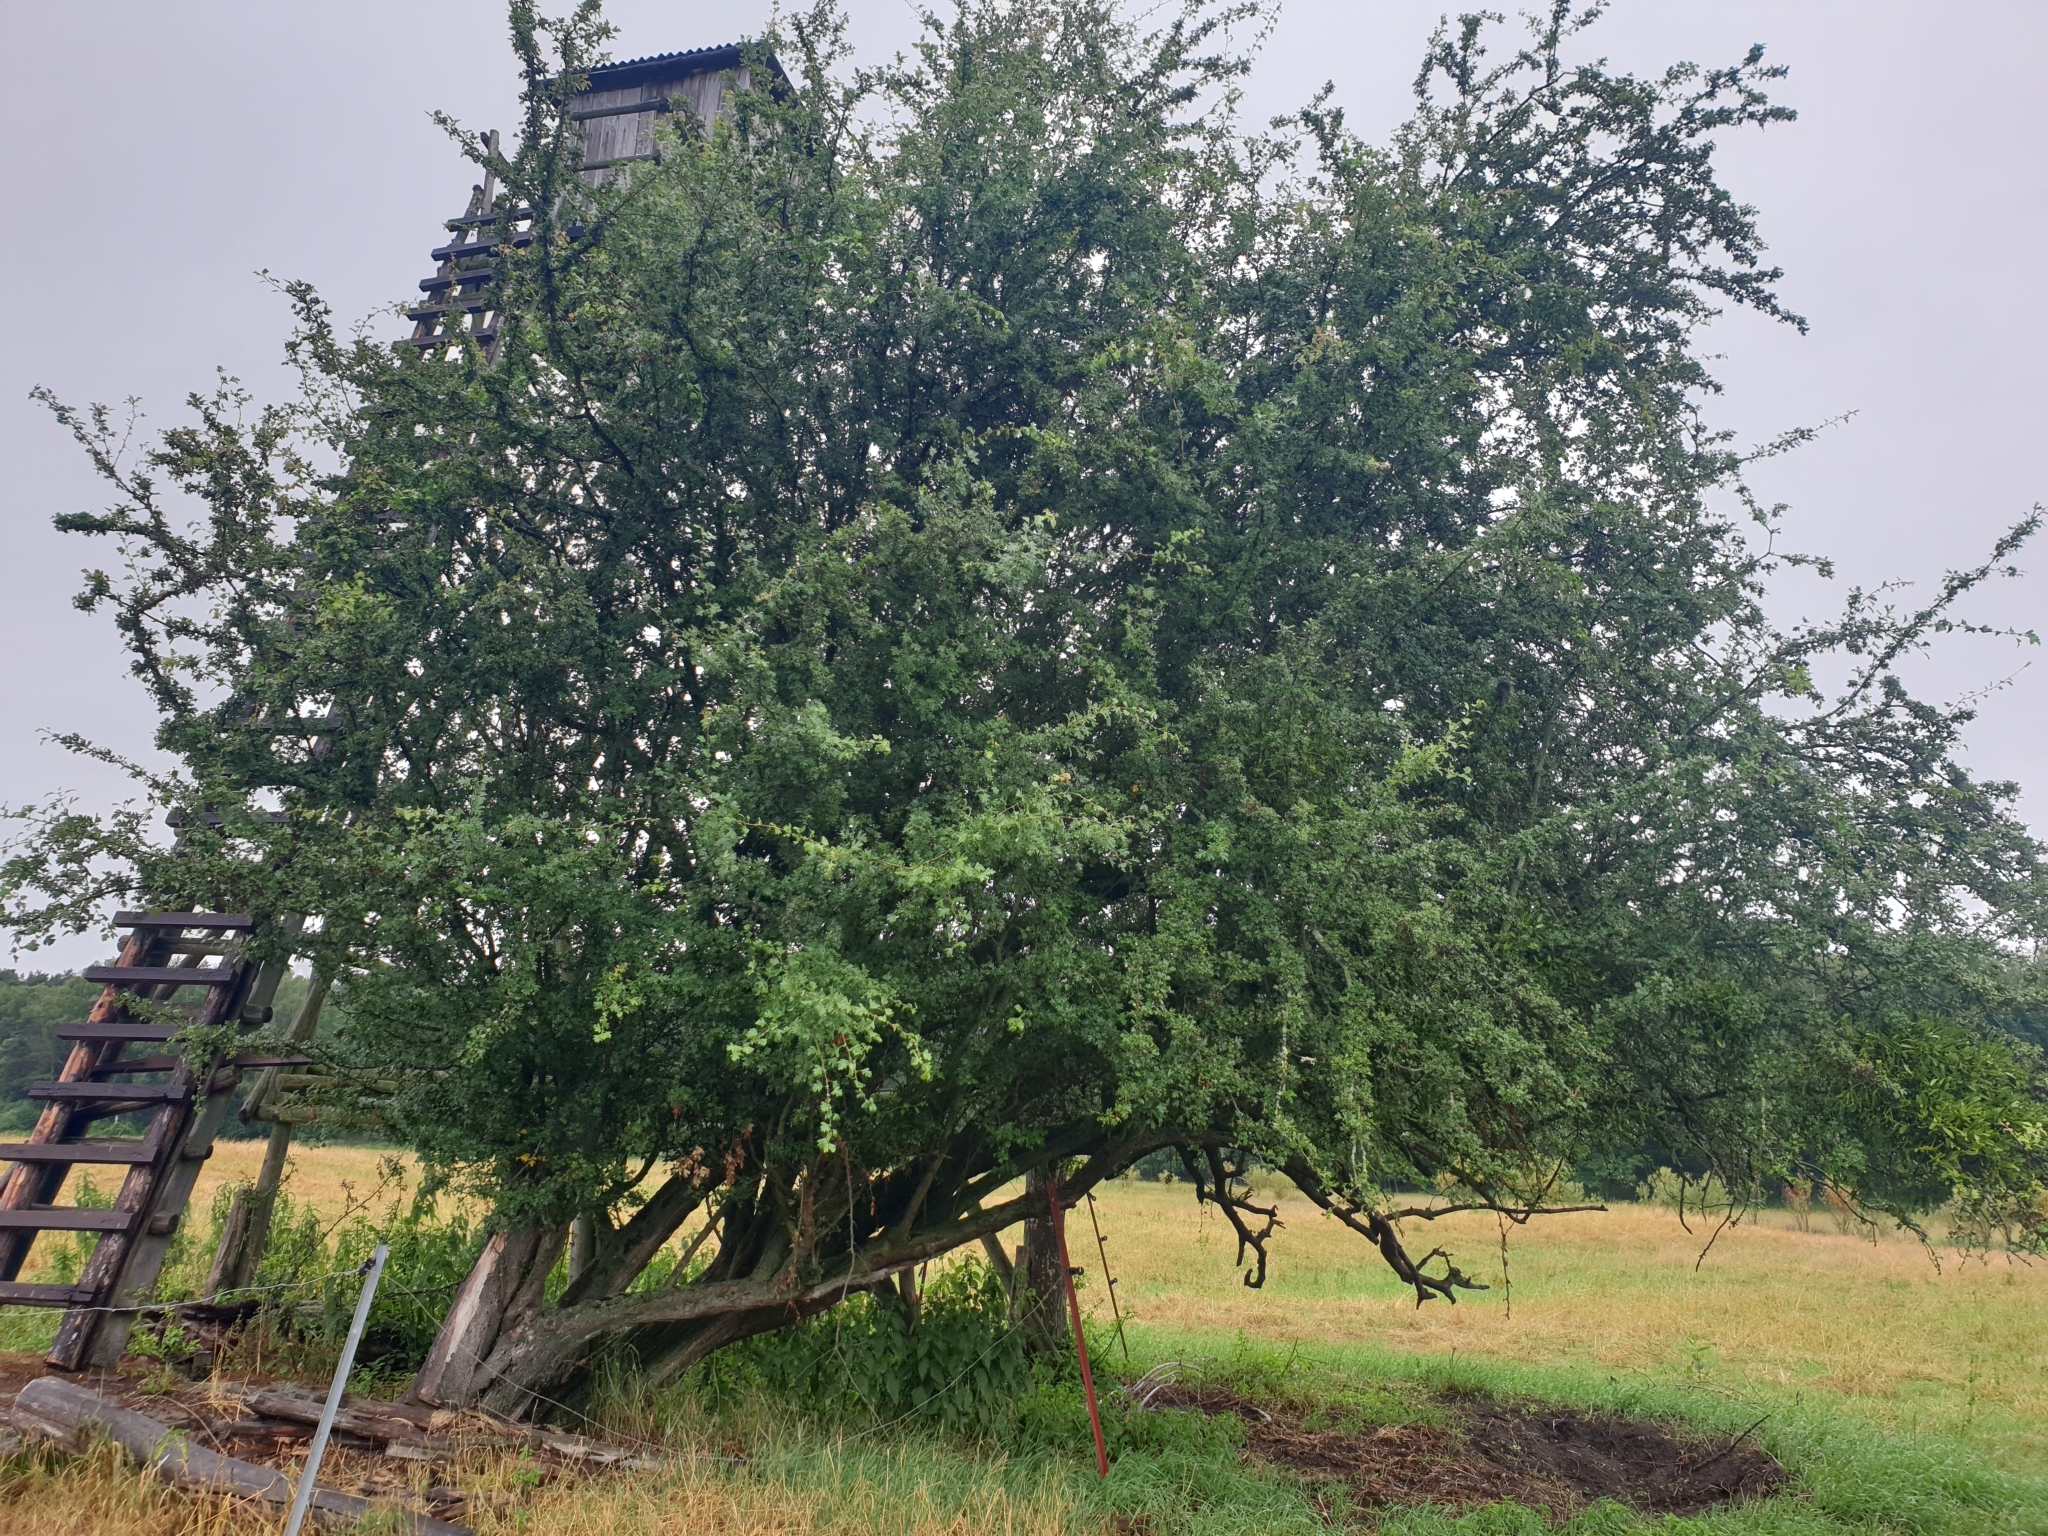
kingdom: Plantae
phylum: Tracheophyta
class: Magnoliopsida
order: Rosales
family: Rosaceae
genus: Crataegus
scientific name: Crataegus monogyna
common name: Hawthorn
